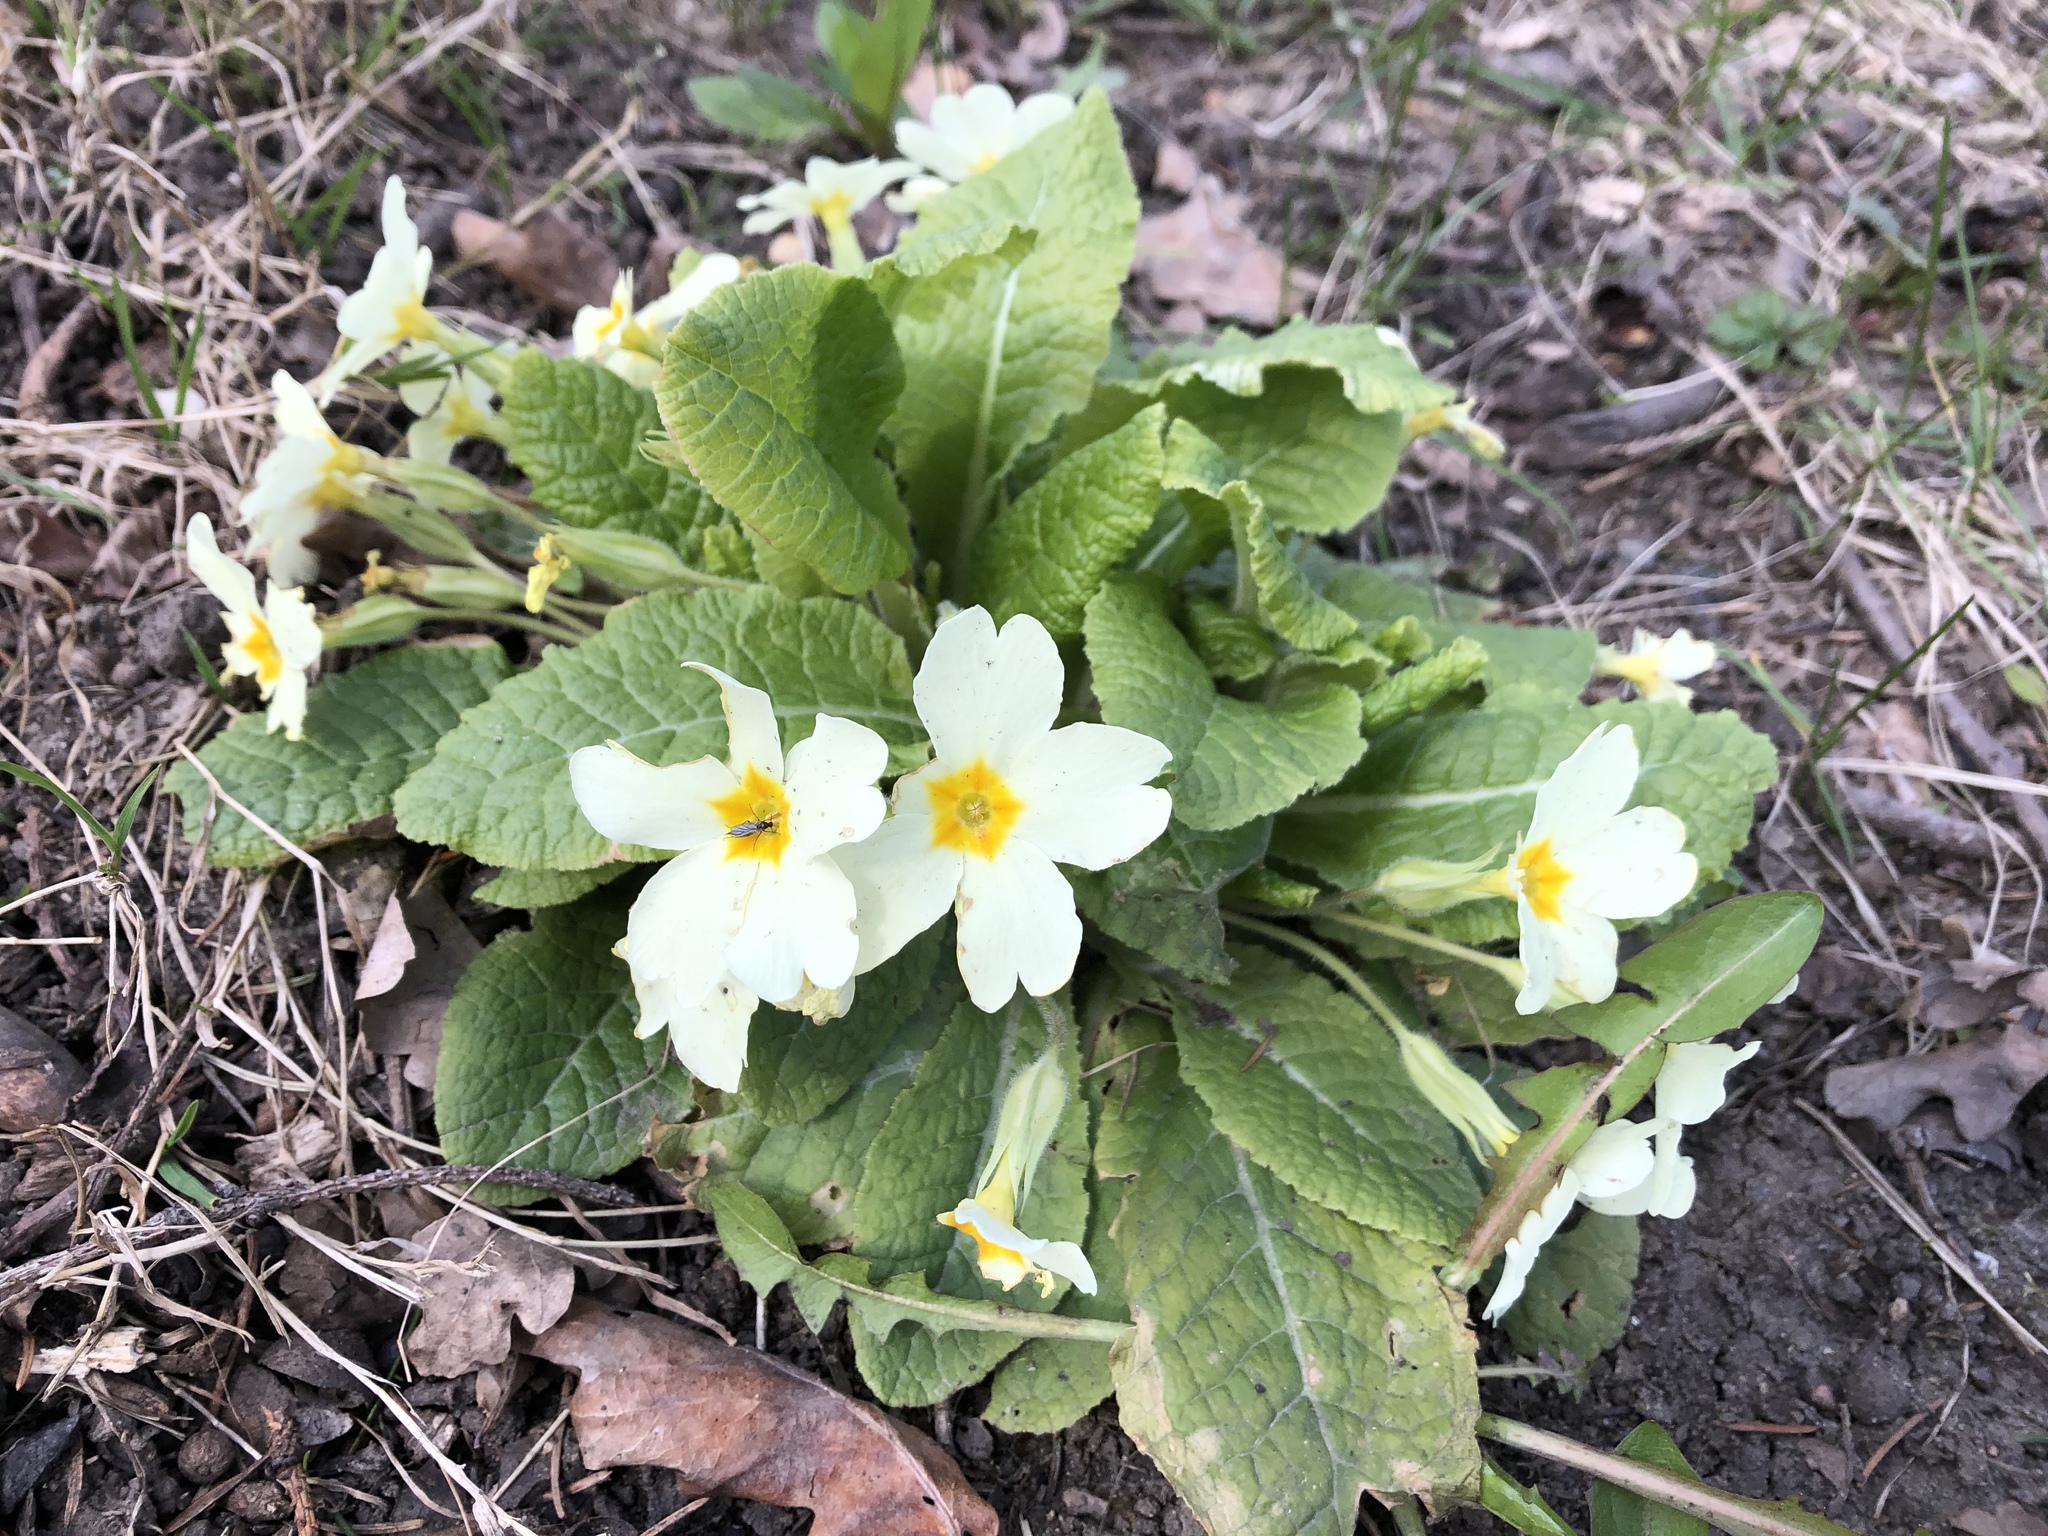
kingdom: Plantae
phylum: Tracheophyta
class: Magnoliopsida
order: Ericales
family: Primulaceae
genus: Primula
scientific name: Primula vulgaris
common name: Primrose
